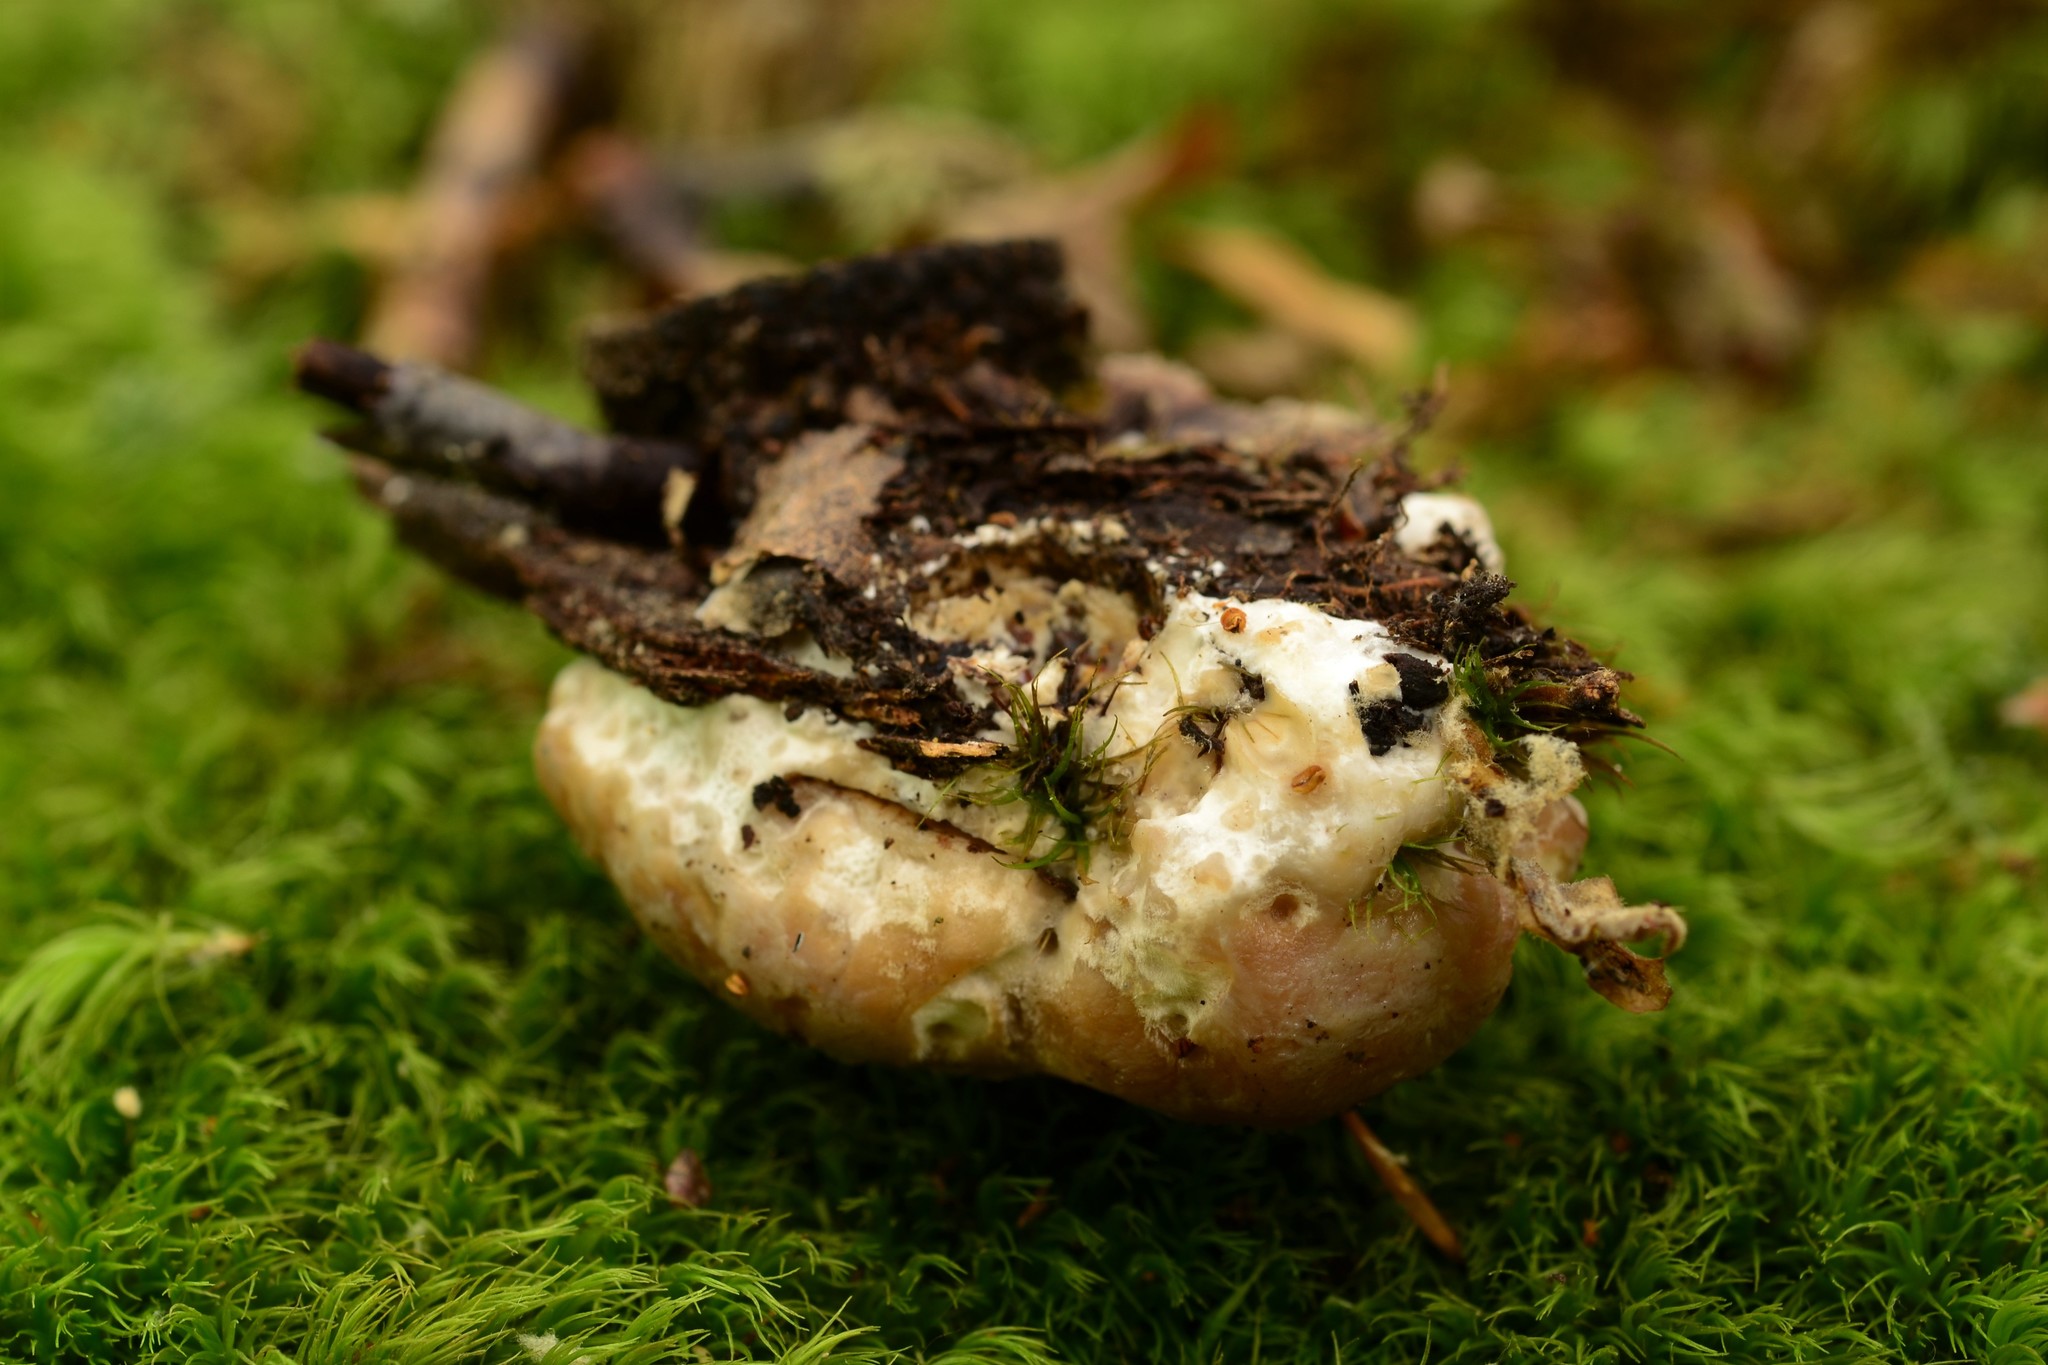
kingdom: Fungi
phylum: Basidiomycota
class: Agaricomycetes
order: Polyporales
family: Fomitopsidaceae
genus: Niveoporofomes
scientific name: Niveoporofomes spraguei
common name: Green cheese polypore
